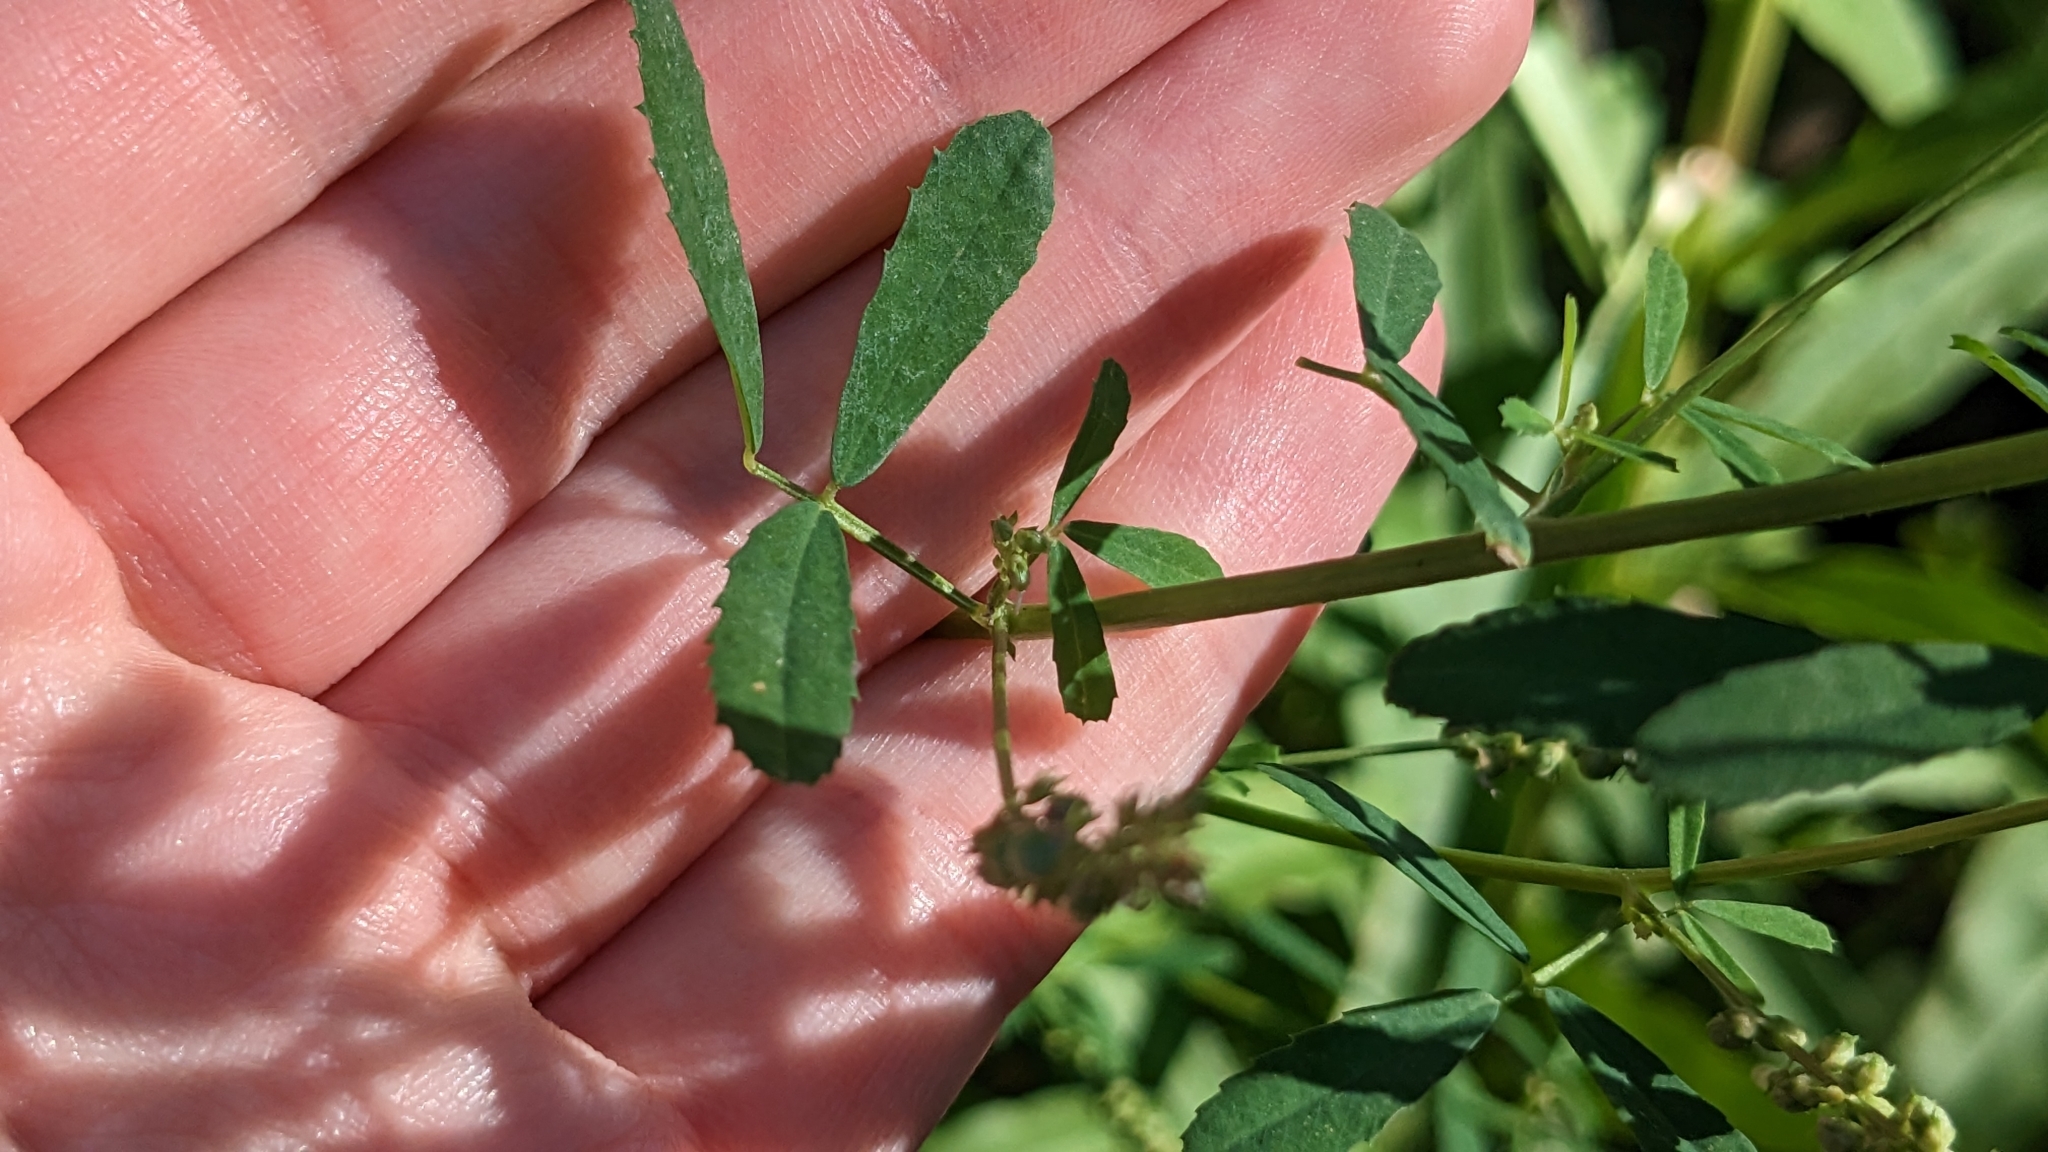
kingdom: Plantae
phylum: Tracheophyta
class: Magnoliopsida
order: Fabales
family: Fabaceae
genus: Melilotus
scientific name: Melilotus indicus
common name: Small melilot
